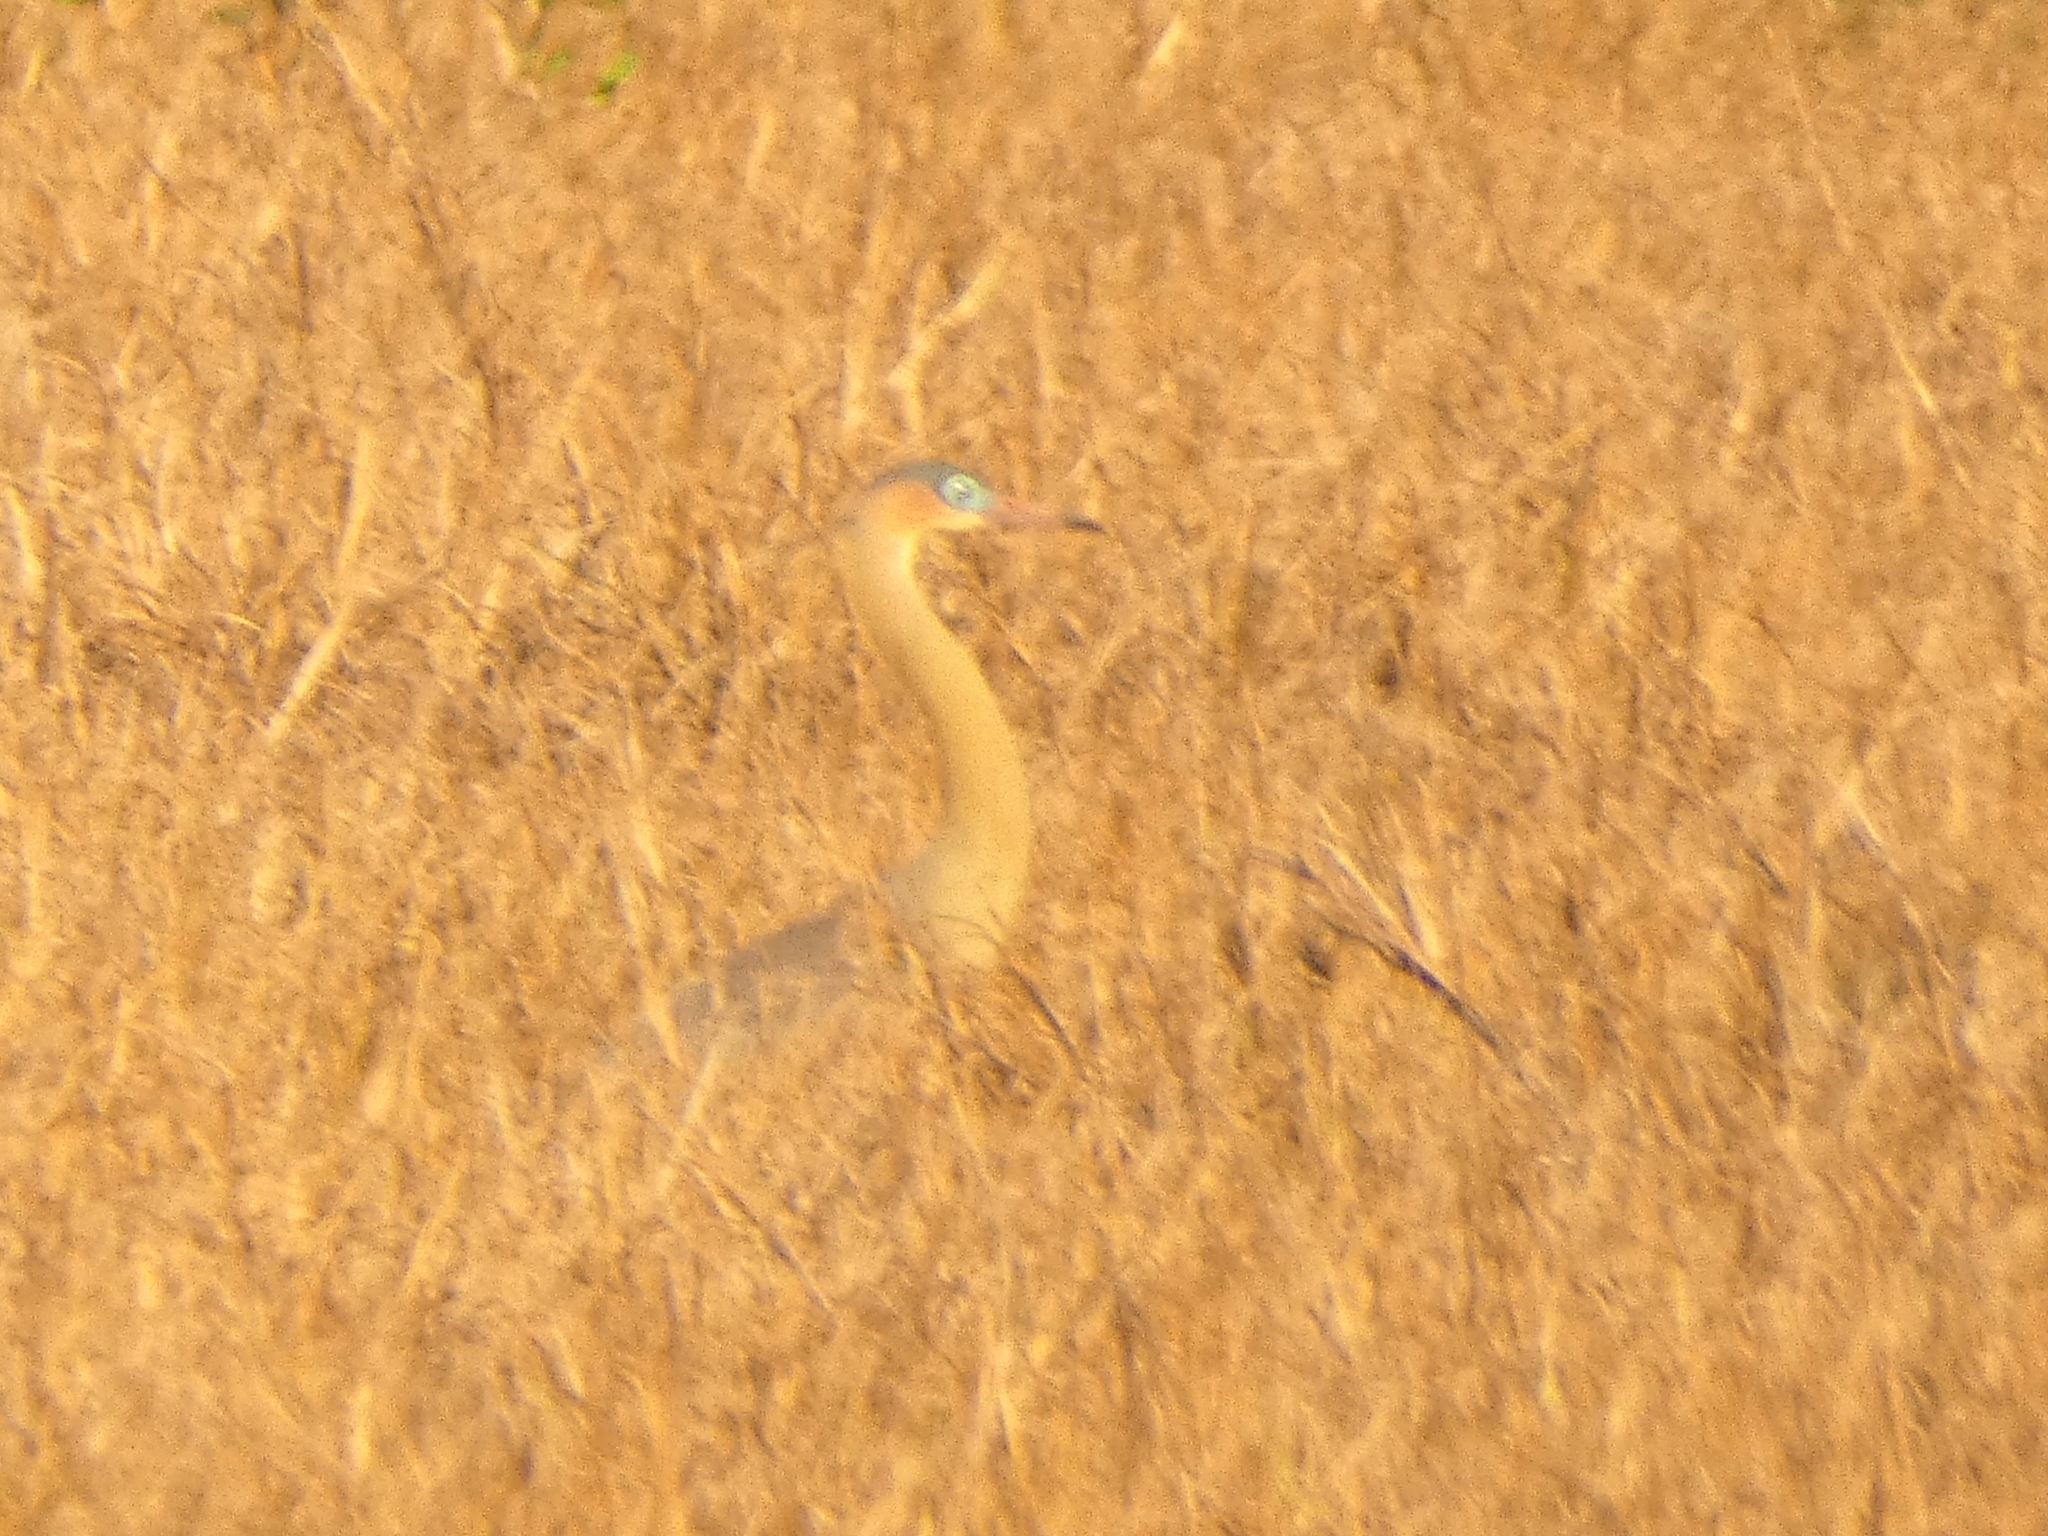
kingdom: Animalia
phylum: Chordata
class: Aves
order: Pelecaniformes
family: Ardeidae
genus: Syrigma
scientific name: Syrigma sibilatrix
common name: Whistling heron
